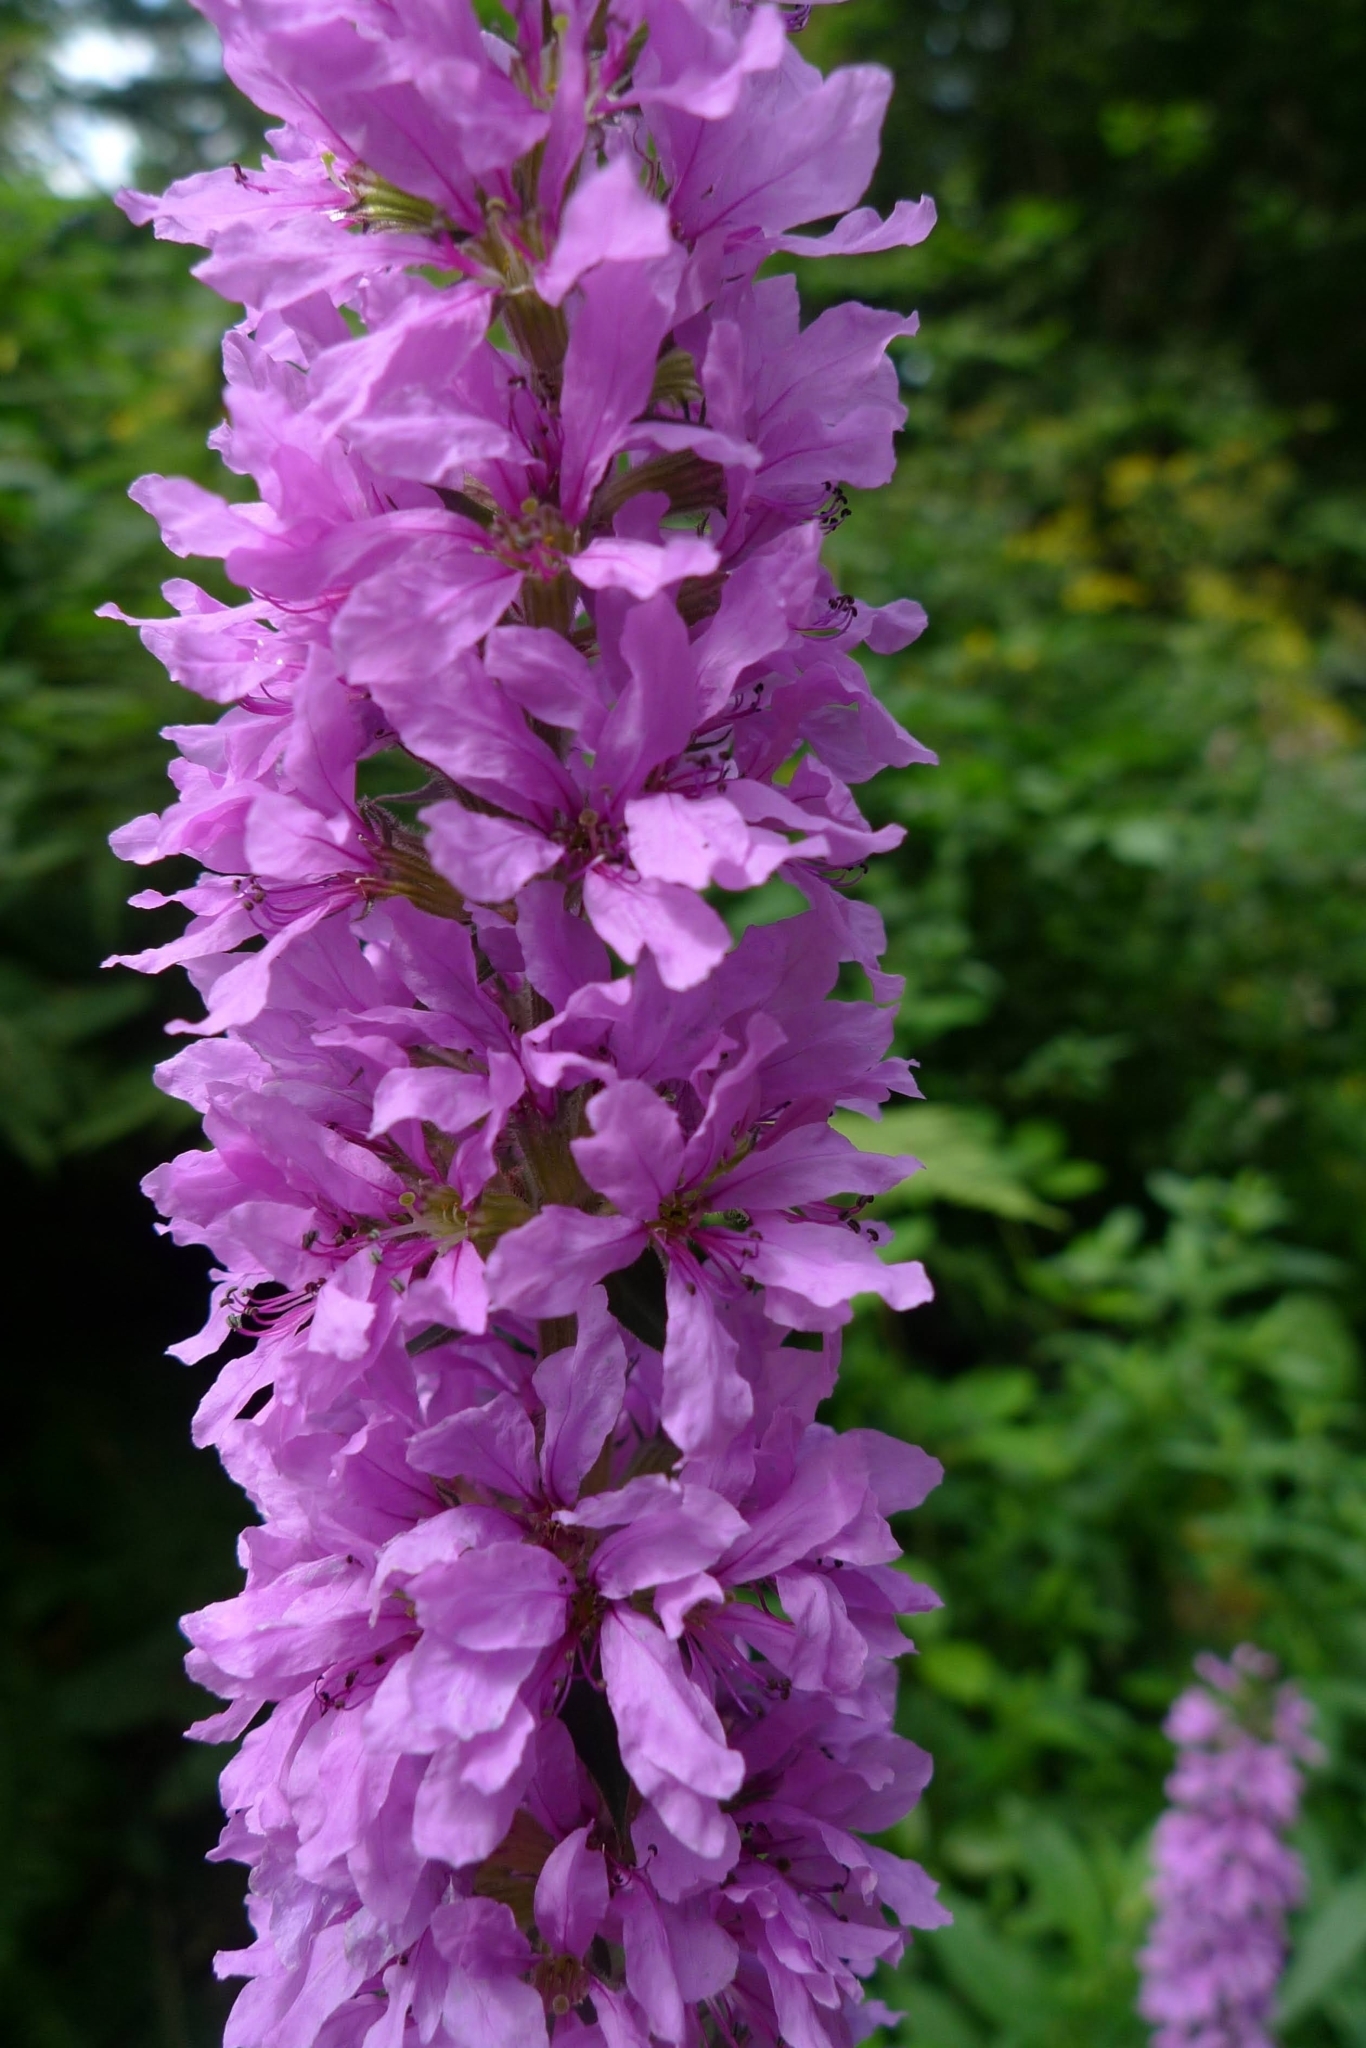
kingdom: Plantae
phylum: Tracheophyta
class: Magnoliopsida
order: Myrtales
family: Lythraceae
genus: Lythrum
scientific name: Lythrum salicaria
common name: Purple loosestrife
